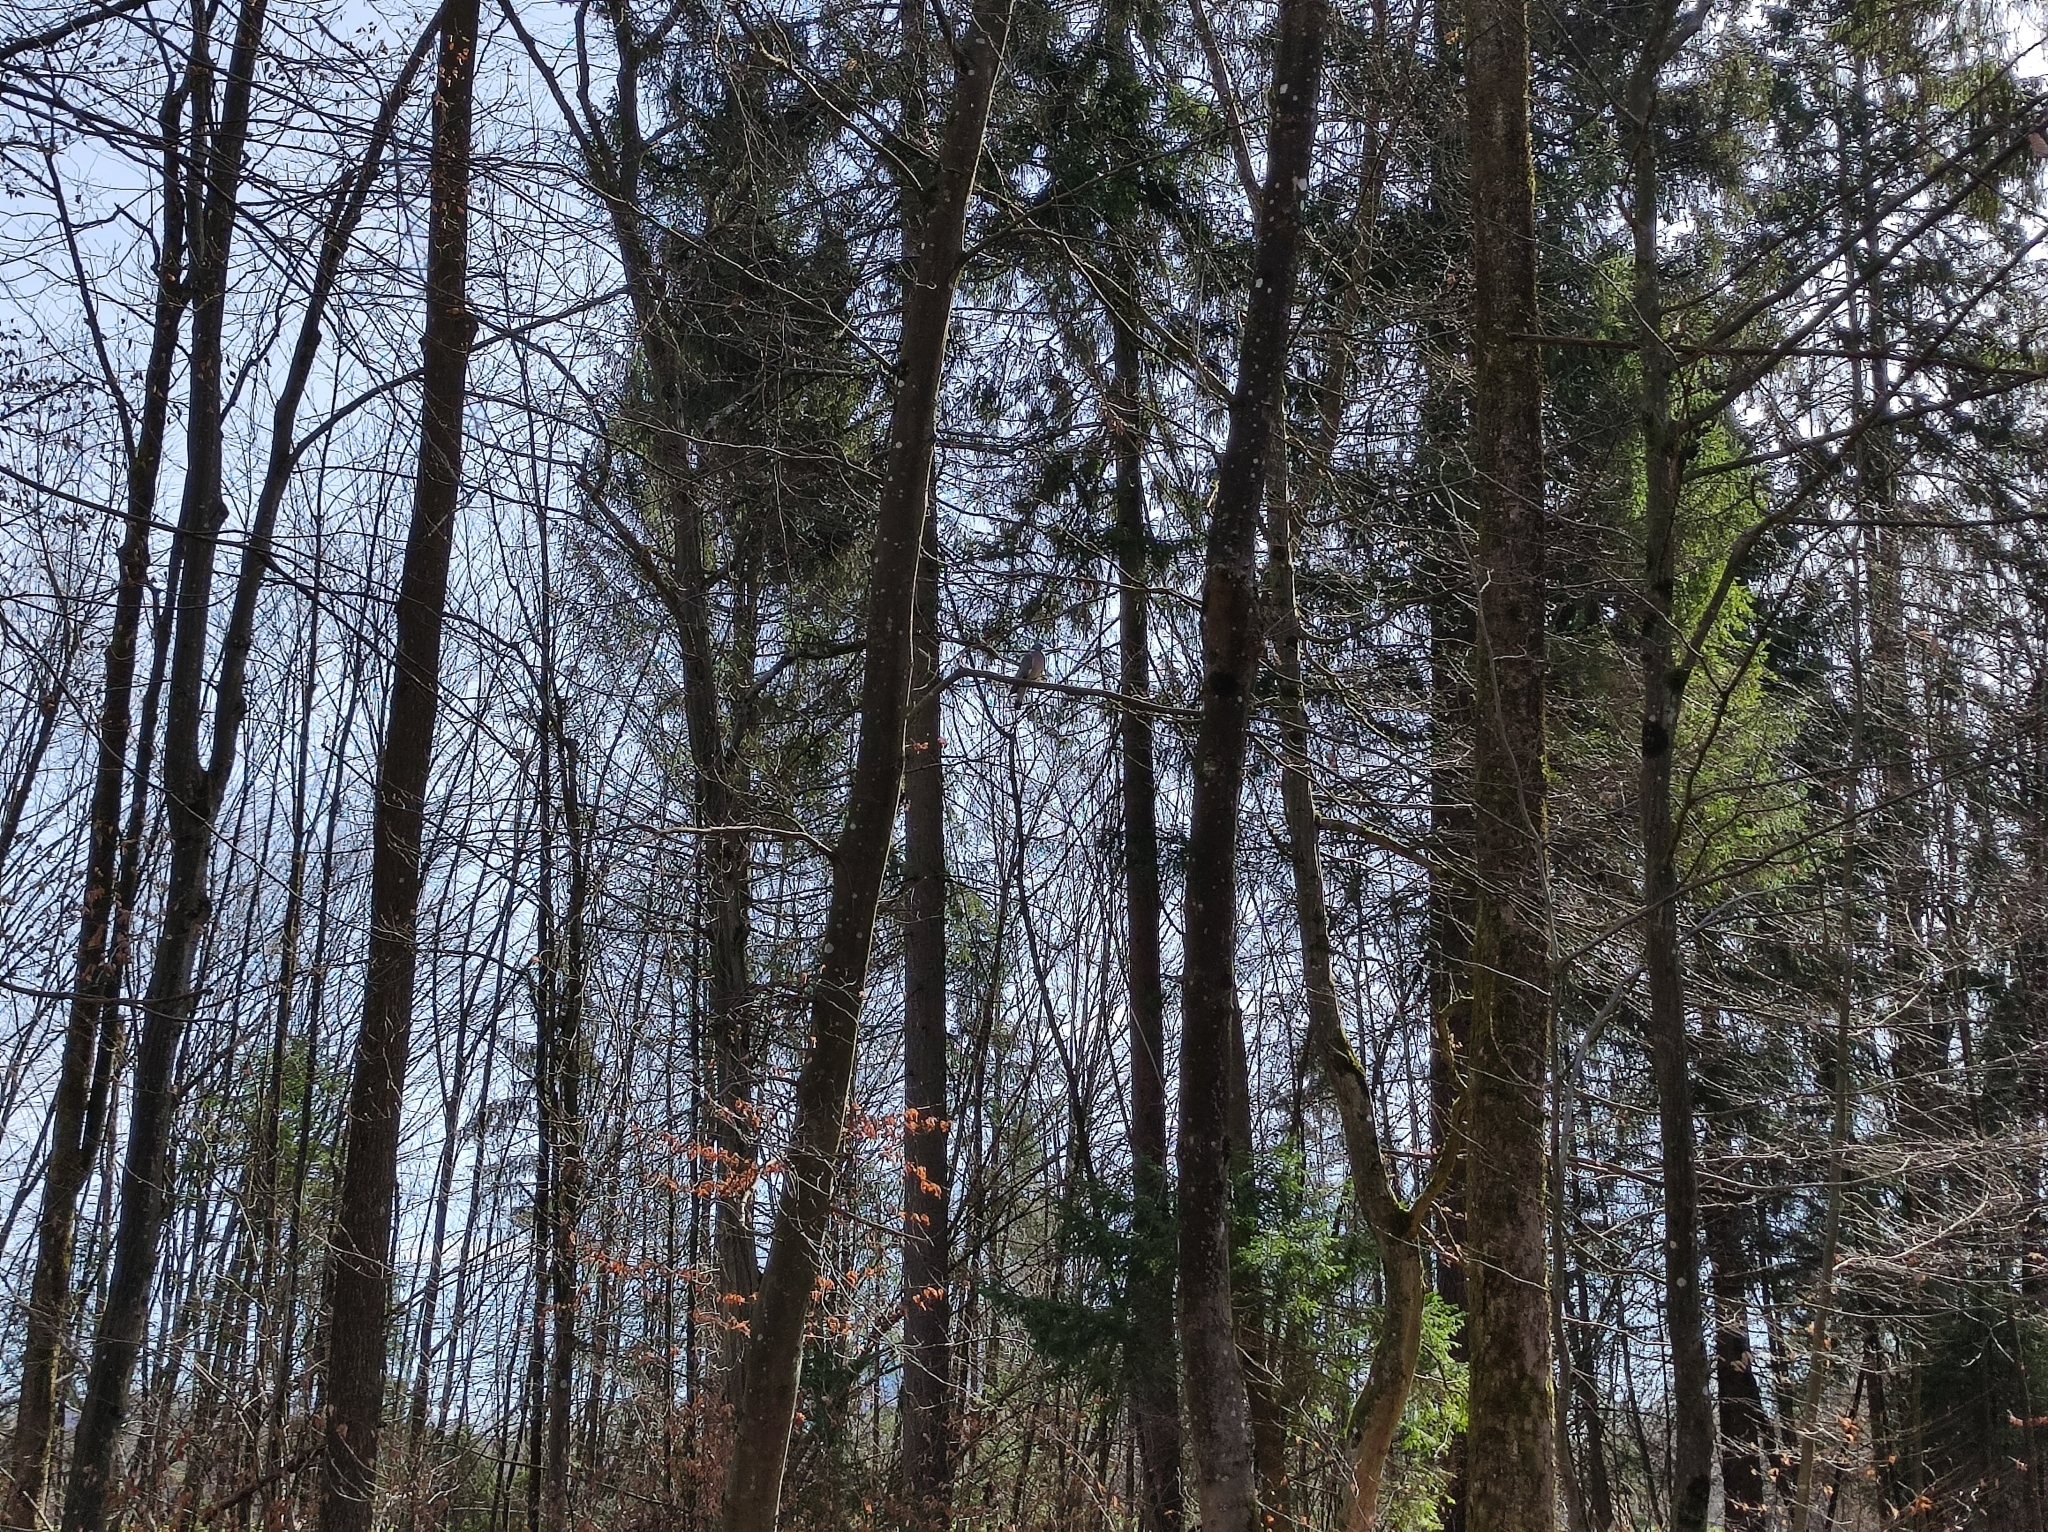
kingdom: Animalia
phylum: Chordata
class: Aves
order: Columbiformes
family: Columbidae
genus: Columba
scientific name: Columba palumbus
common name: Common wood pigeon
